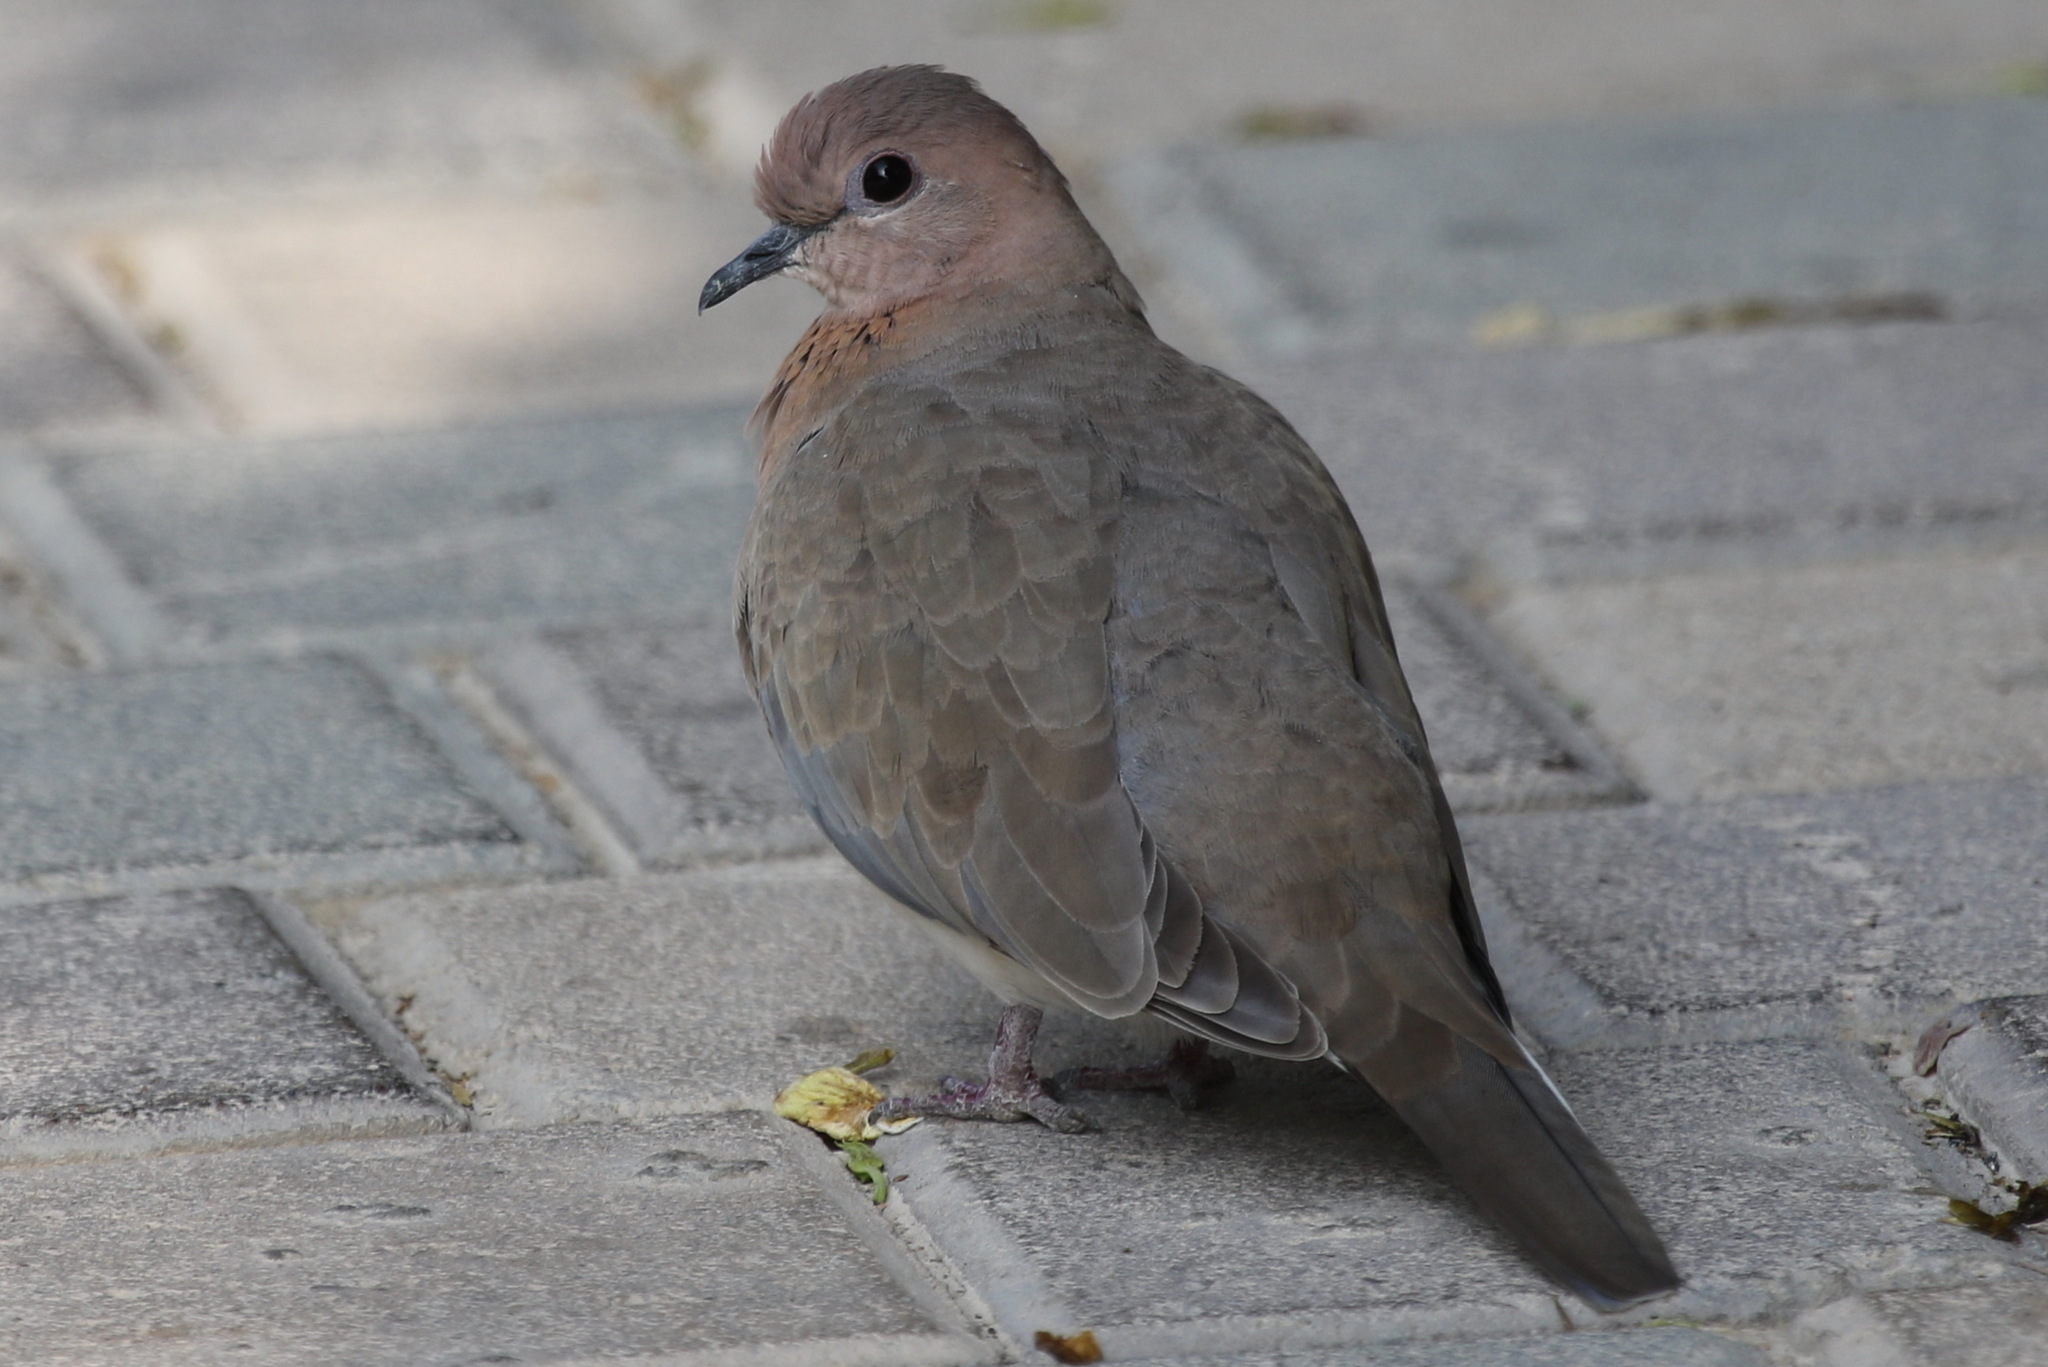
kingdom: Animalia
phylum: Chordata
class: Aves
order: Columbiformes
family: Columbidae
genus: Spilopelia
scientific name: Spilopelia senegalensis
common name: Laughing dove
